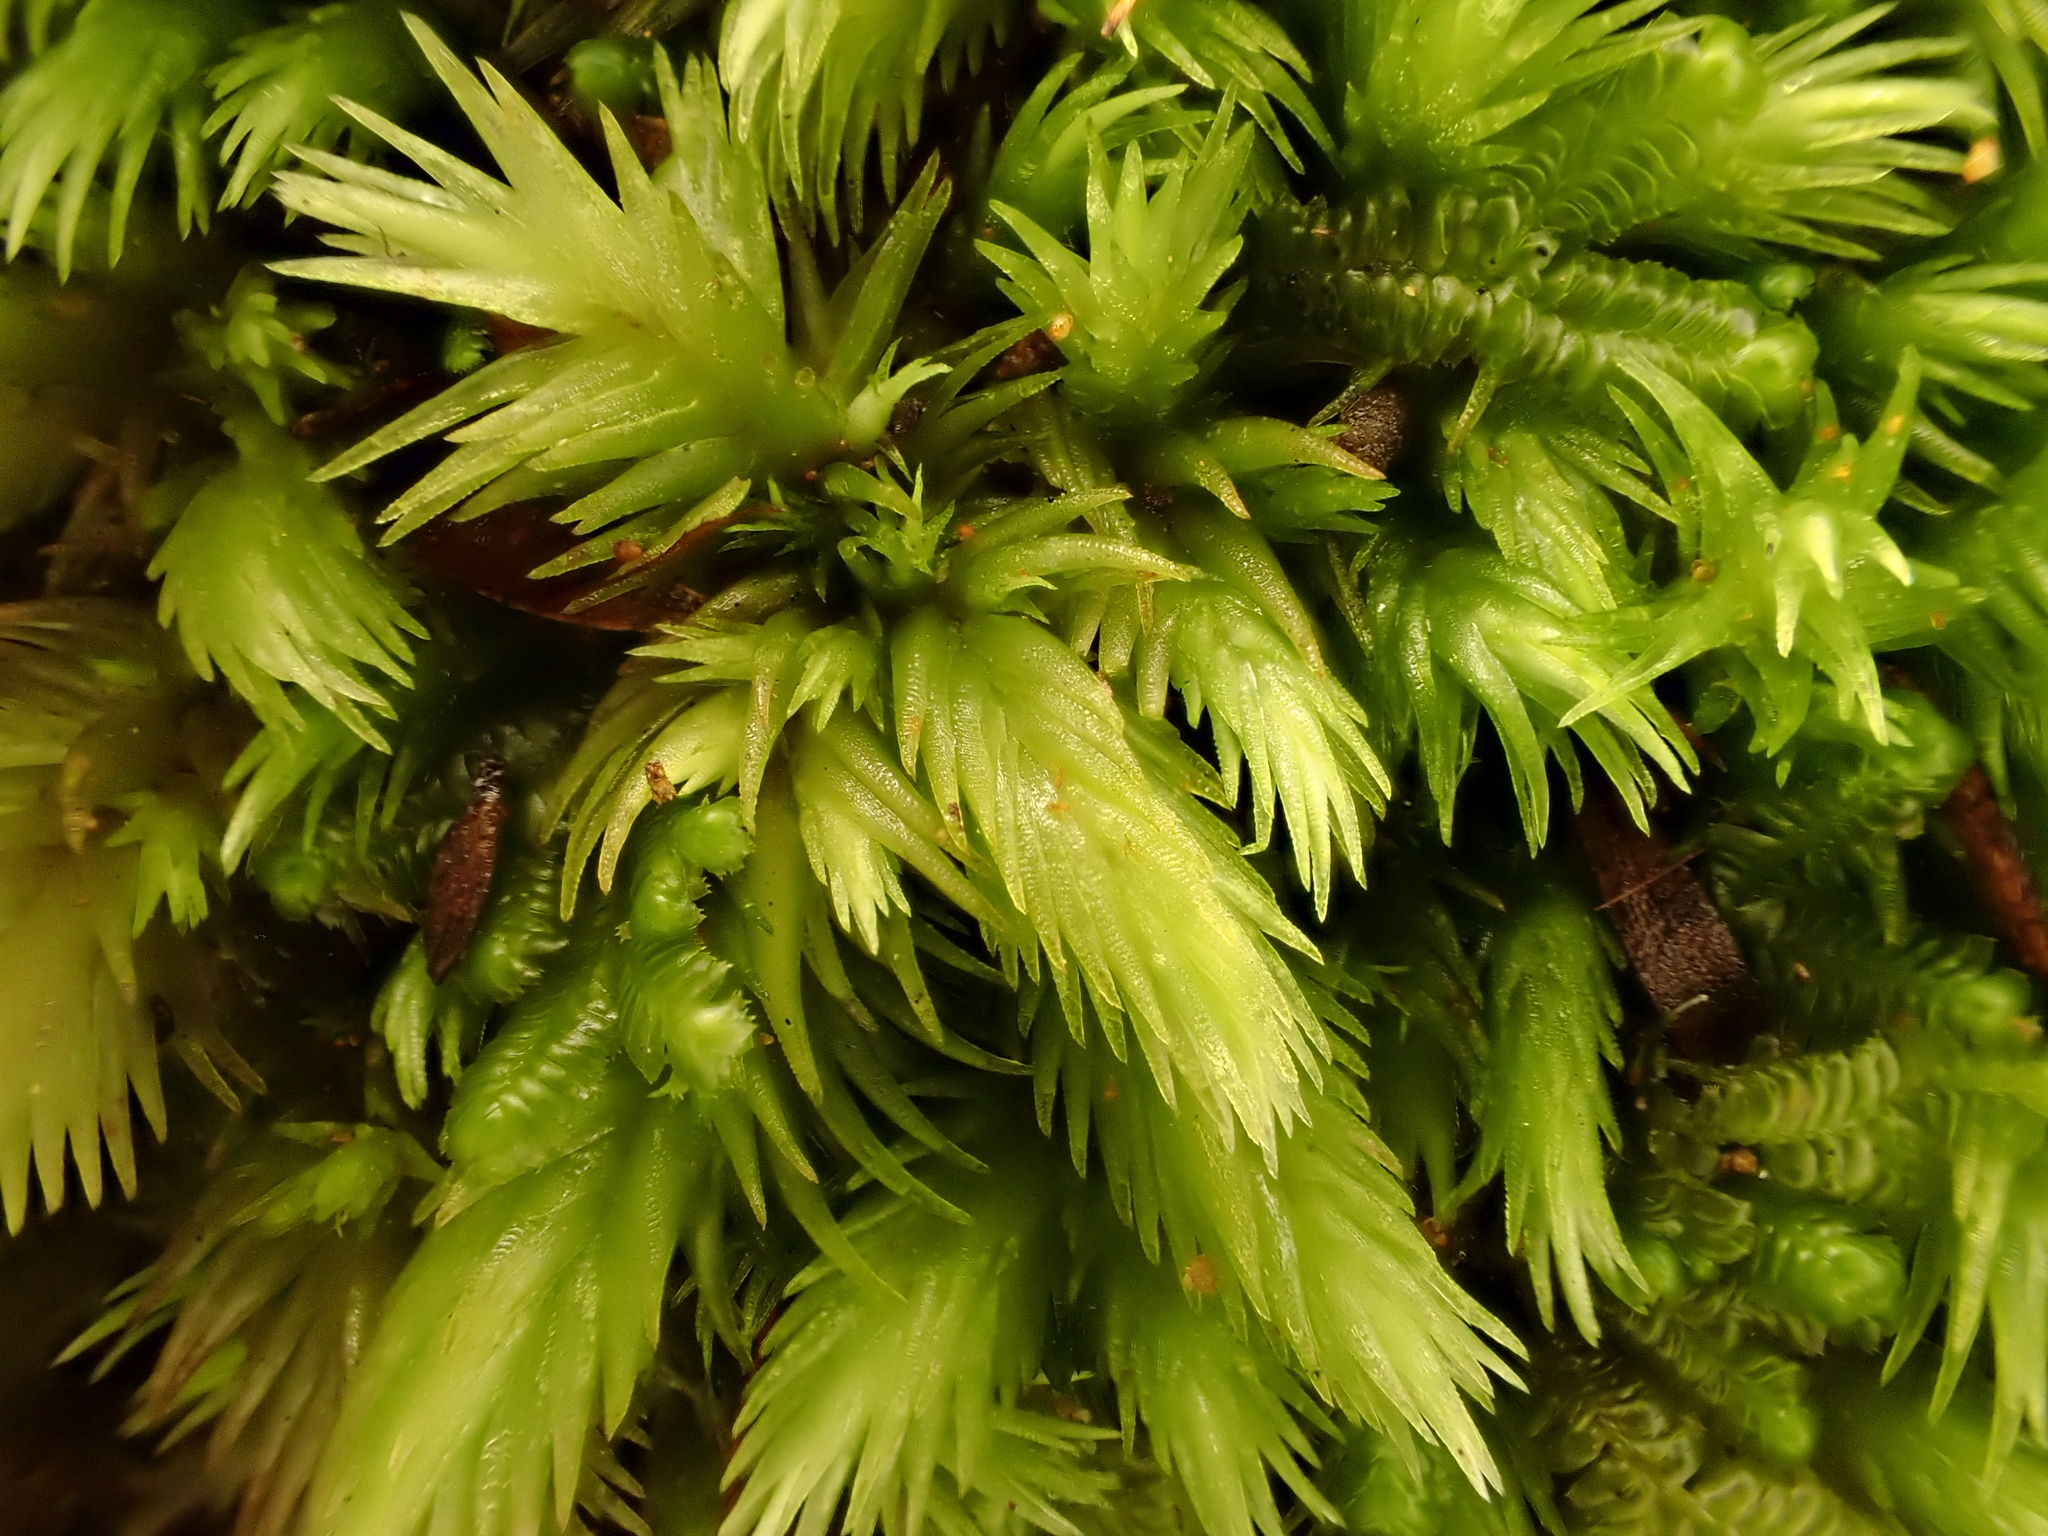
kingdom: Plantae
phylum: Bryophyta
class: Bryopsida
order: Dicranales
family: Leucobryaceae
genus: Leucobryum
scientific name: Leucobryum javense
